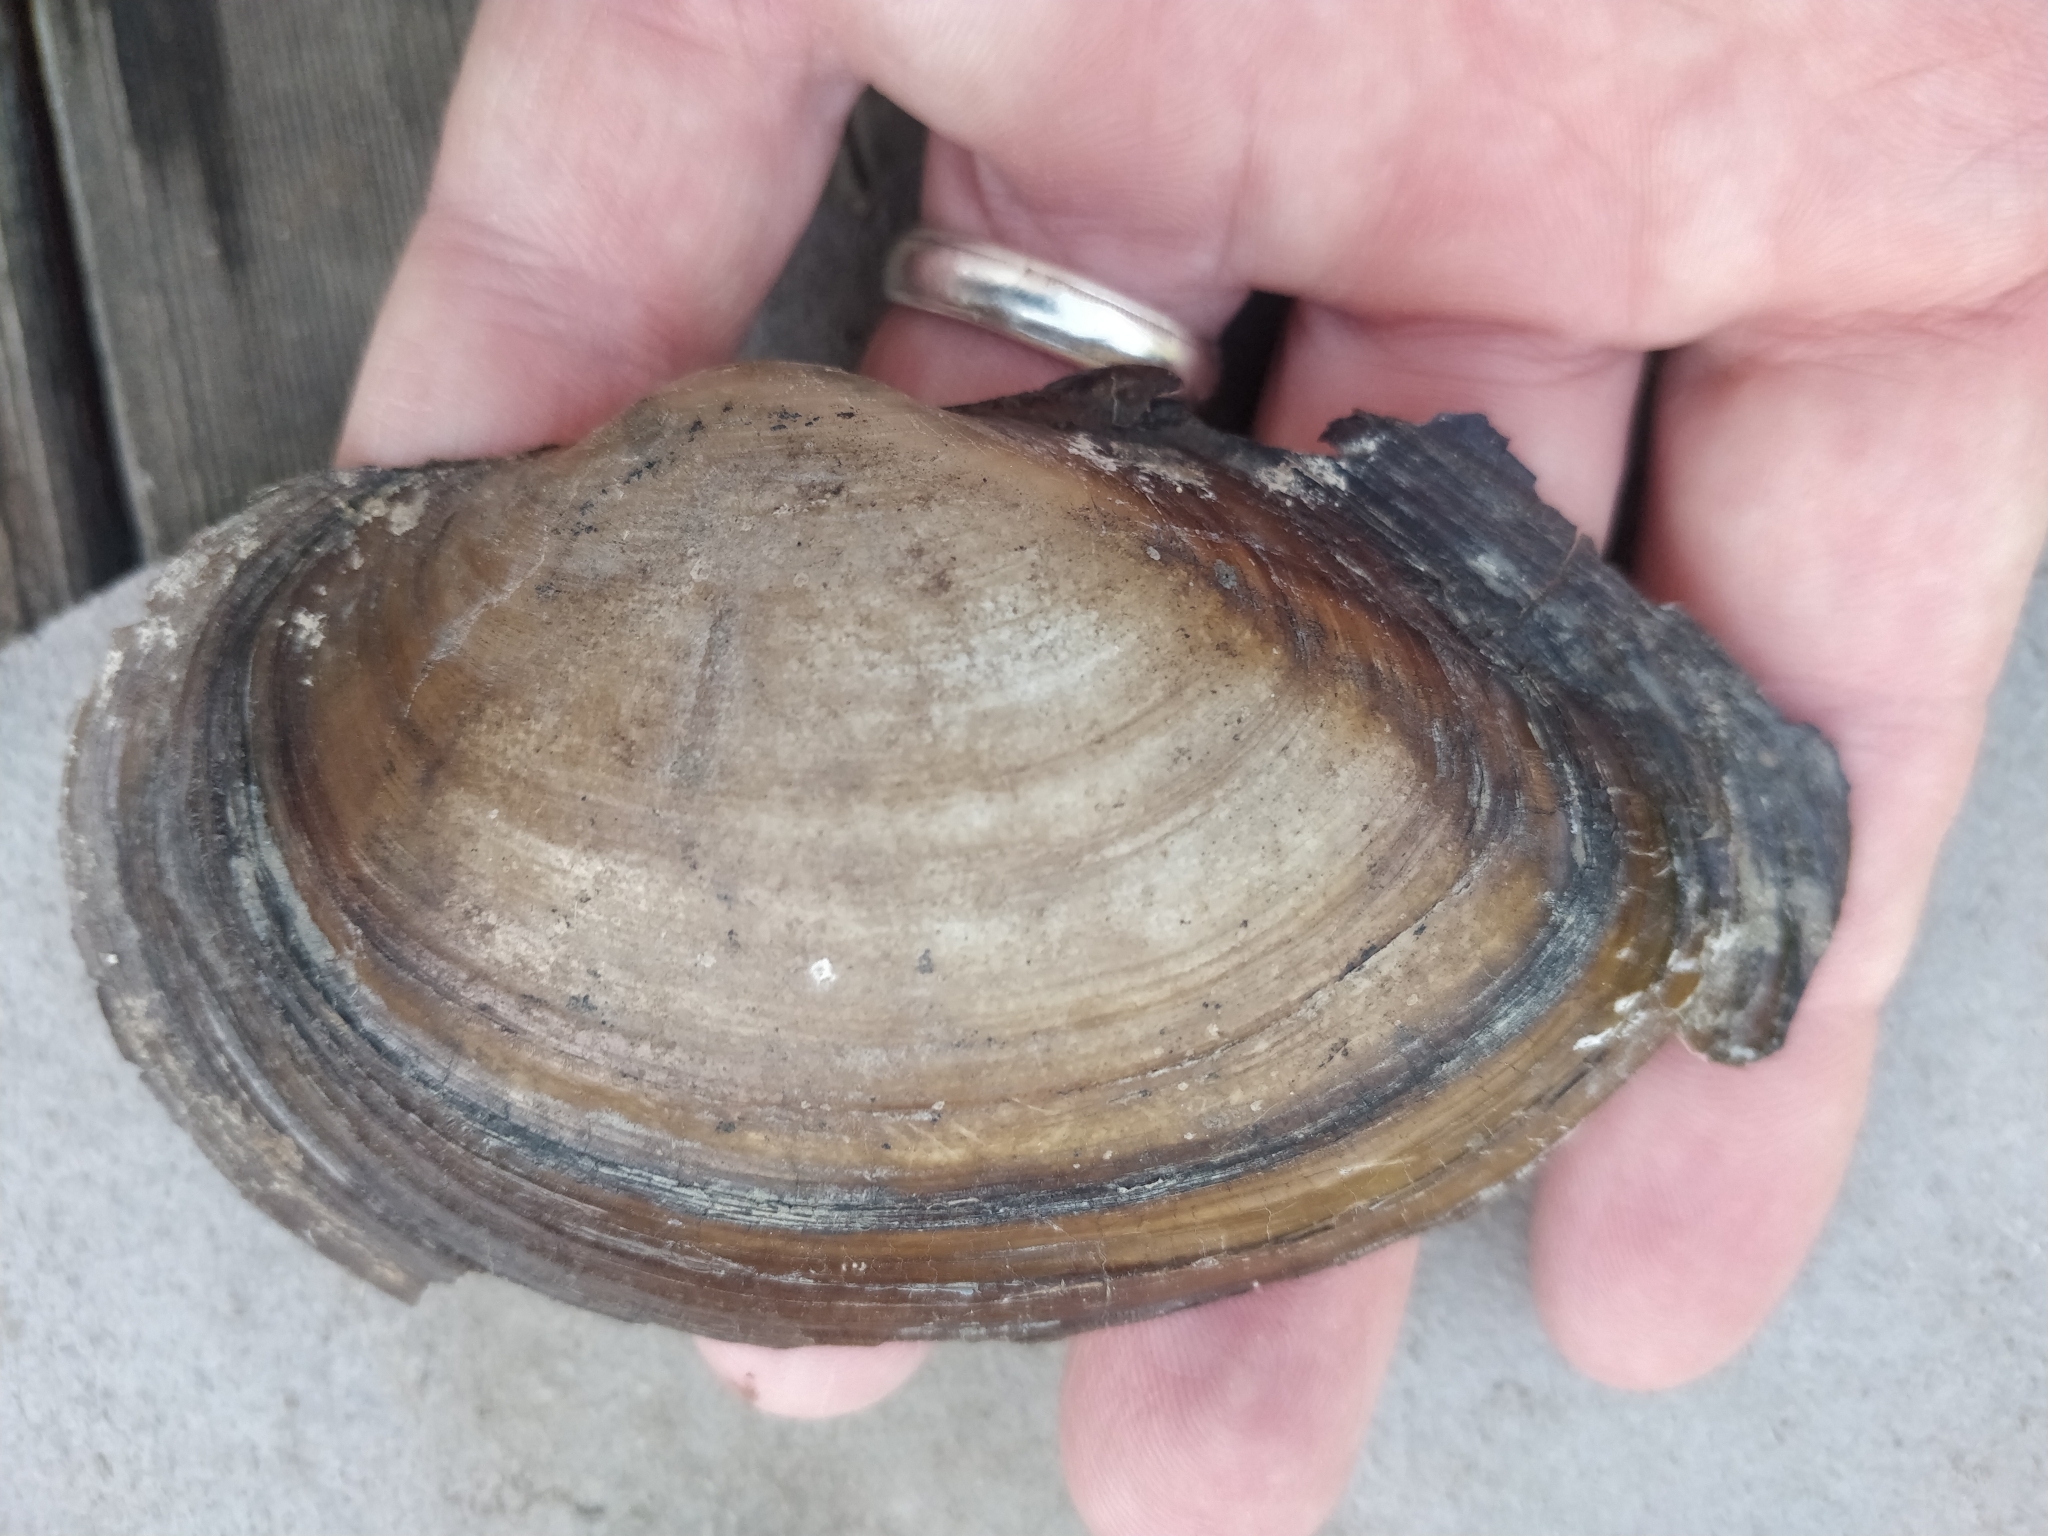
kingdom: Animalia
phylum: Mollusca
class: Bivalvia
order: Unionida
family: Unionidae
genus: Pyganodon
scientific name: Pyganodon grandis
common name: Giant floater
